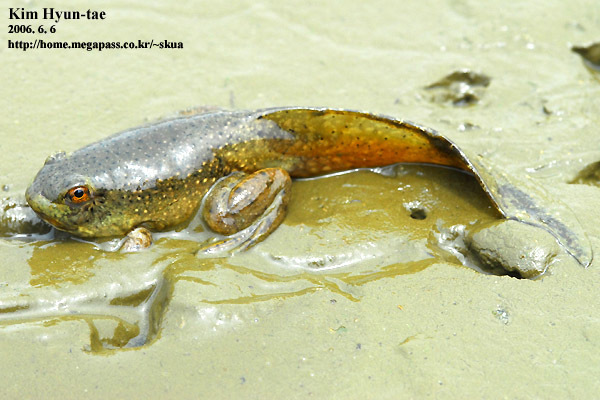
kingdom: Animalia
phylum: Chordata
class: Amphibia
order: Anura
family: Ranidae
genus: Lithobates
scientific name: Lithobates catesbeianus
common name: American bullfrog
